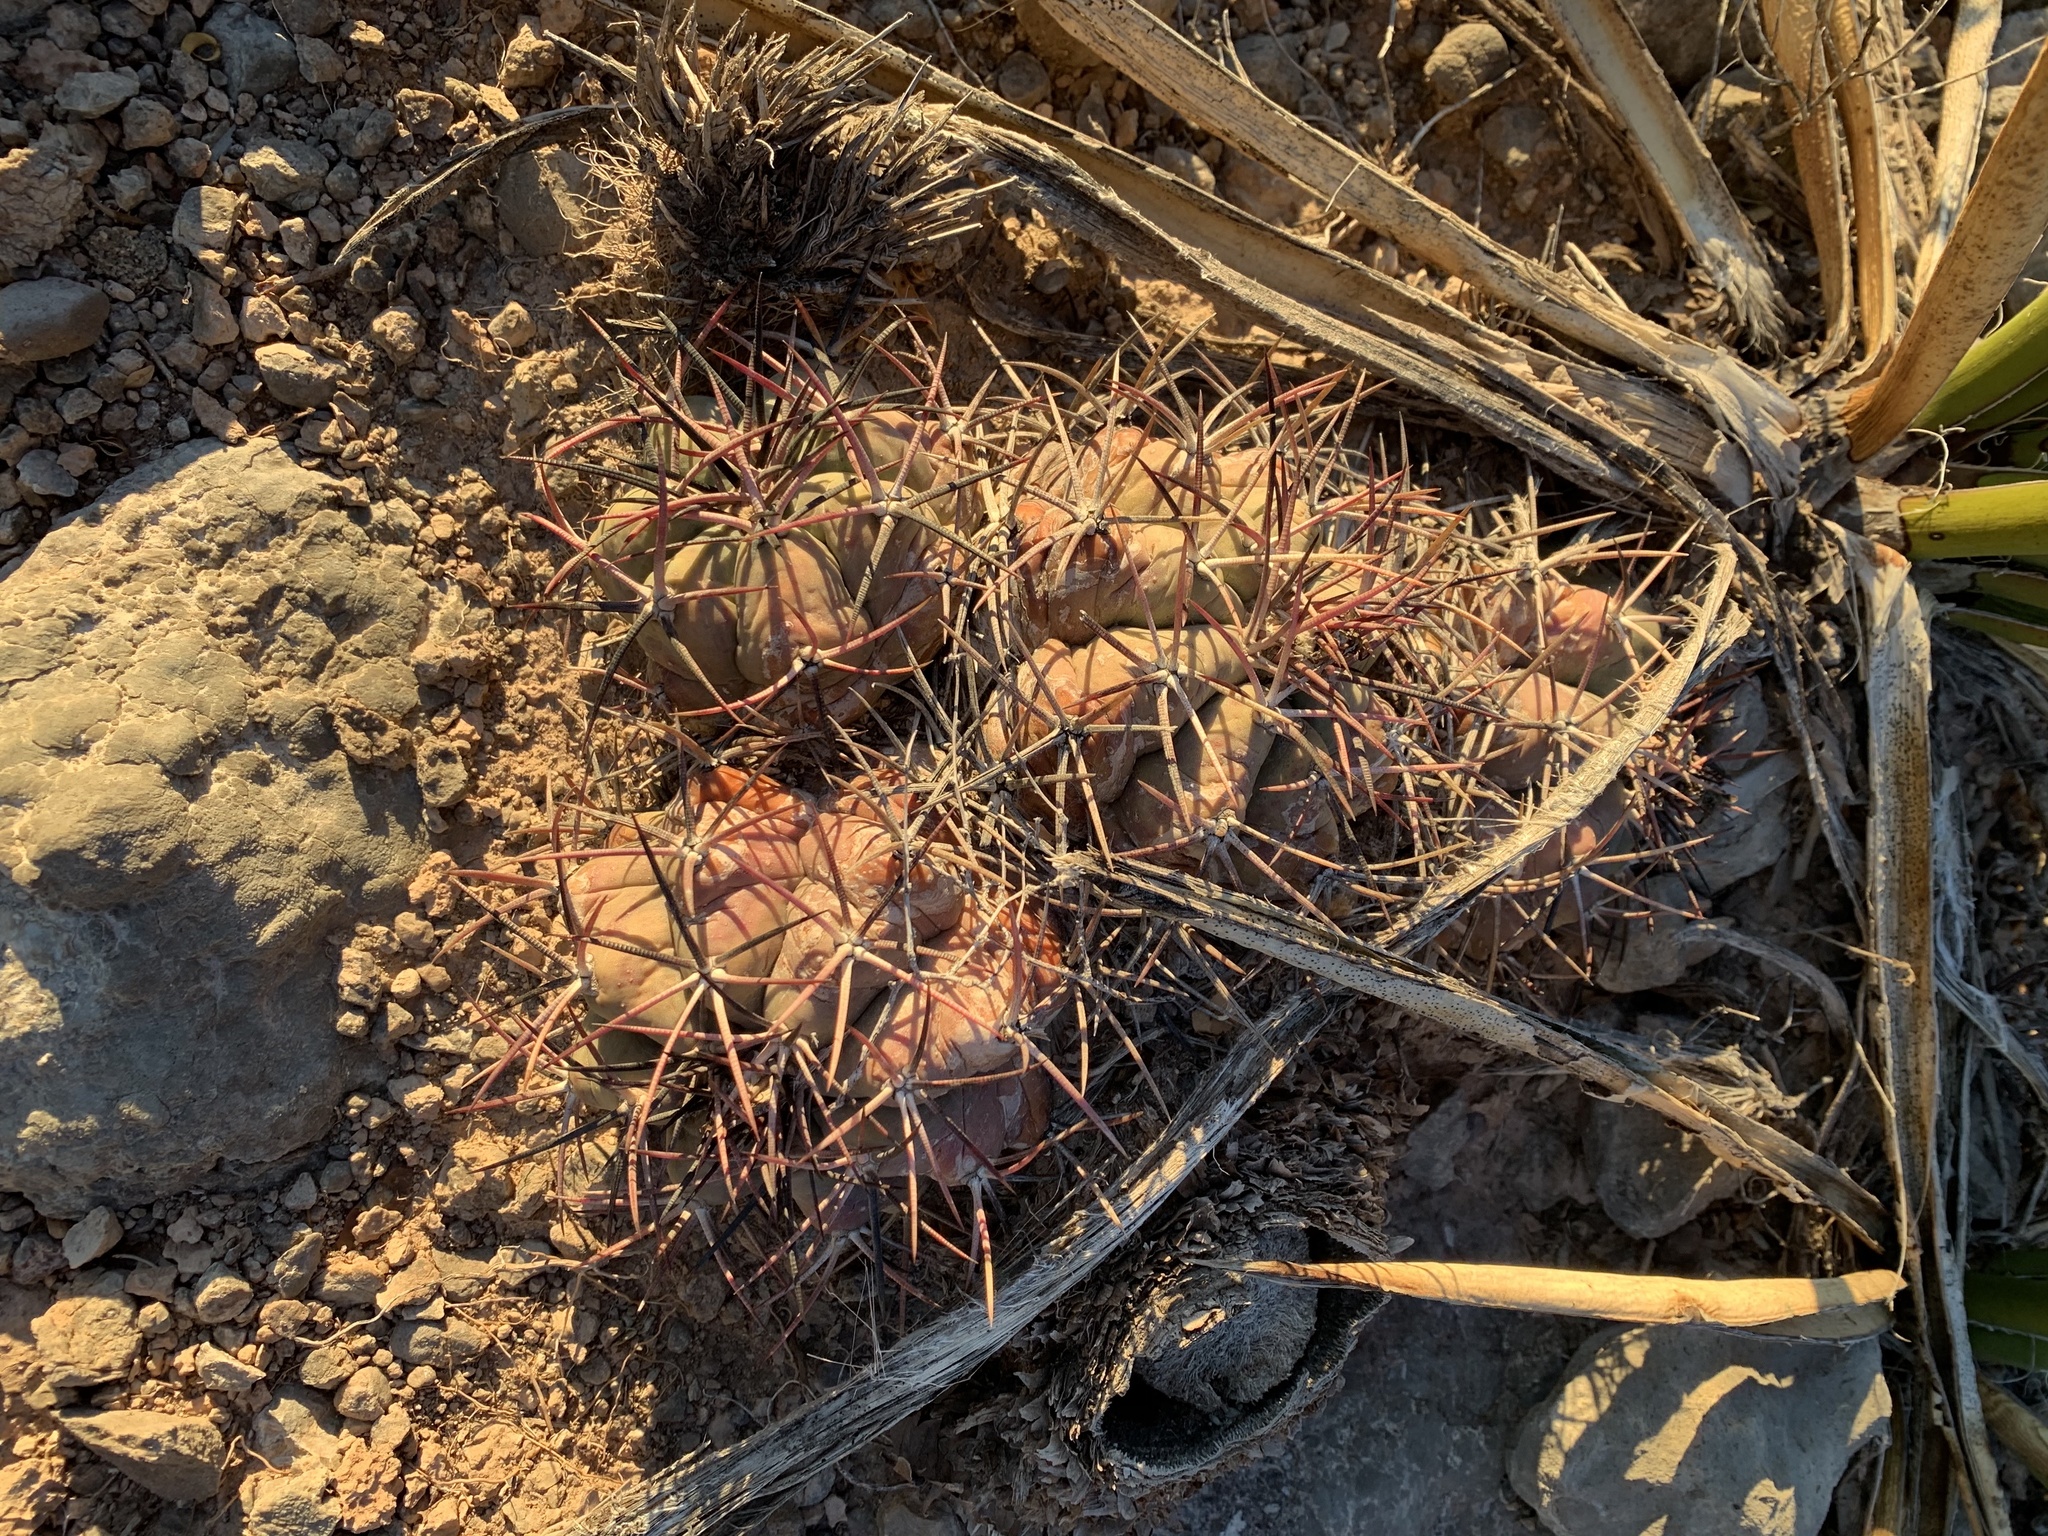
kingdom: Plantae
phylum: Tracheophyta
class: Magnoliopsida
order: Caryophyllales
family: Cactaceae
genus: Echinocactus
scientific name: Echinocactus horizonthalonius
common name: Devilshead
